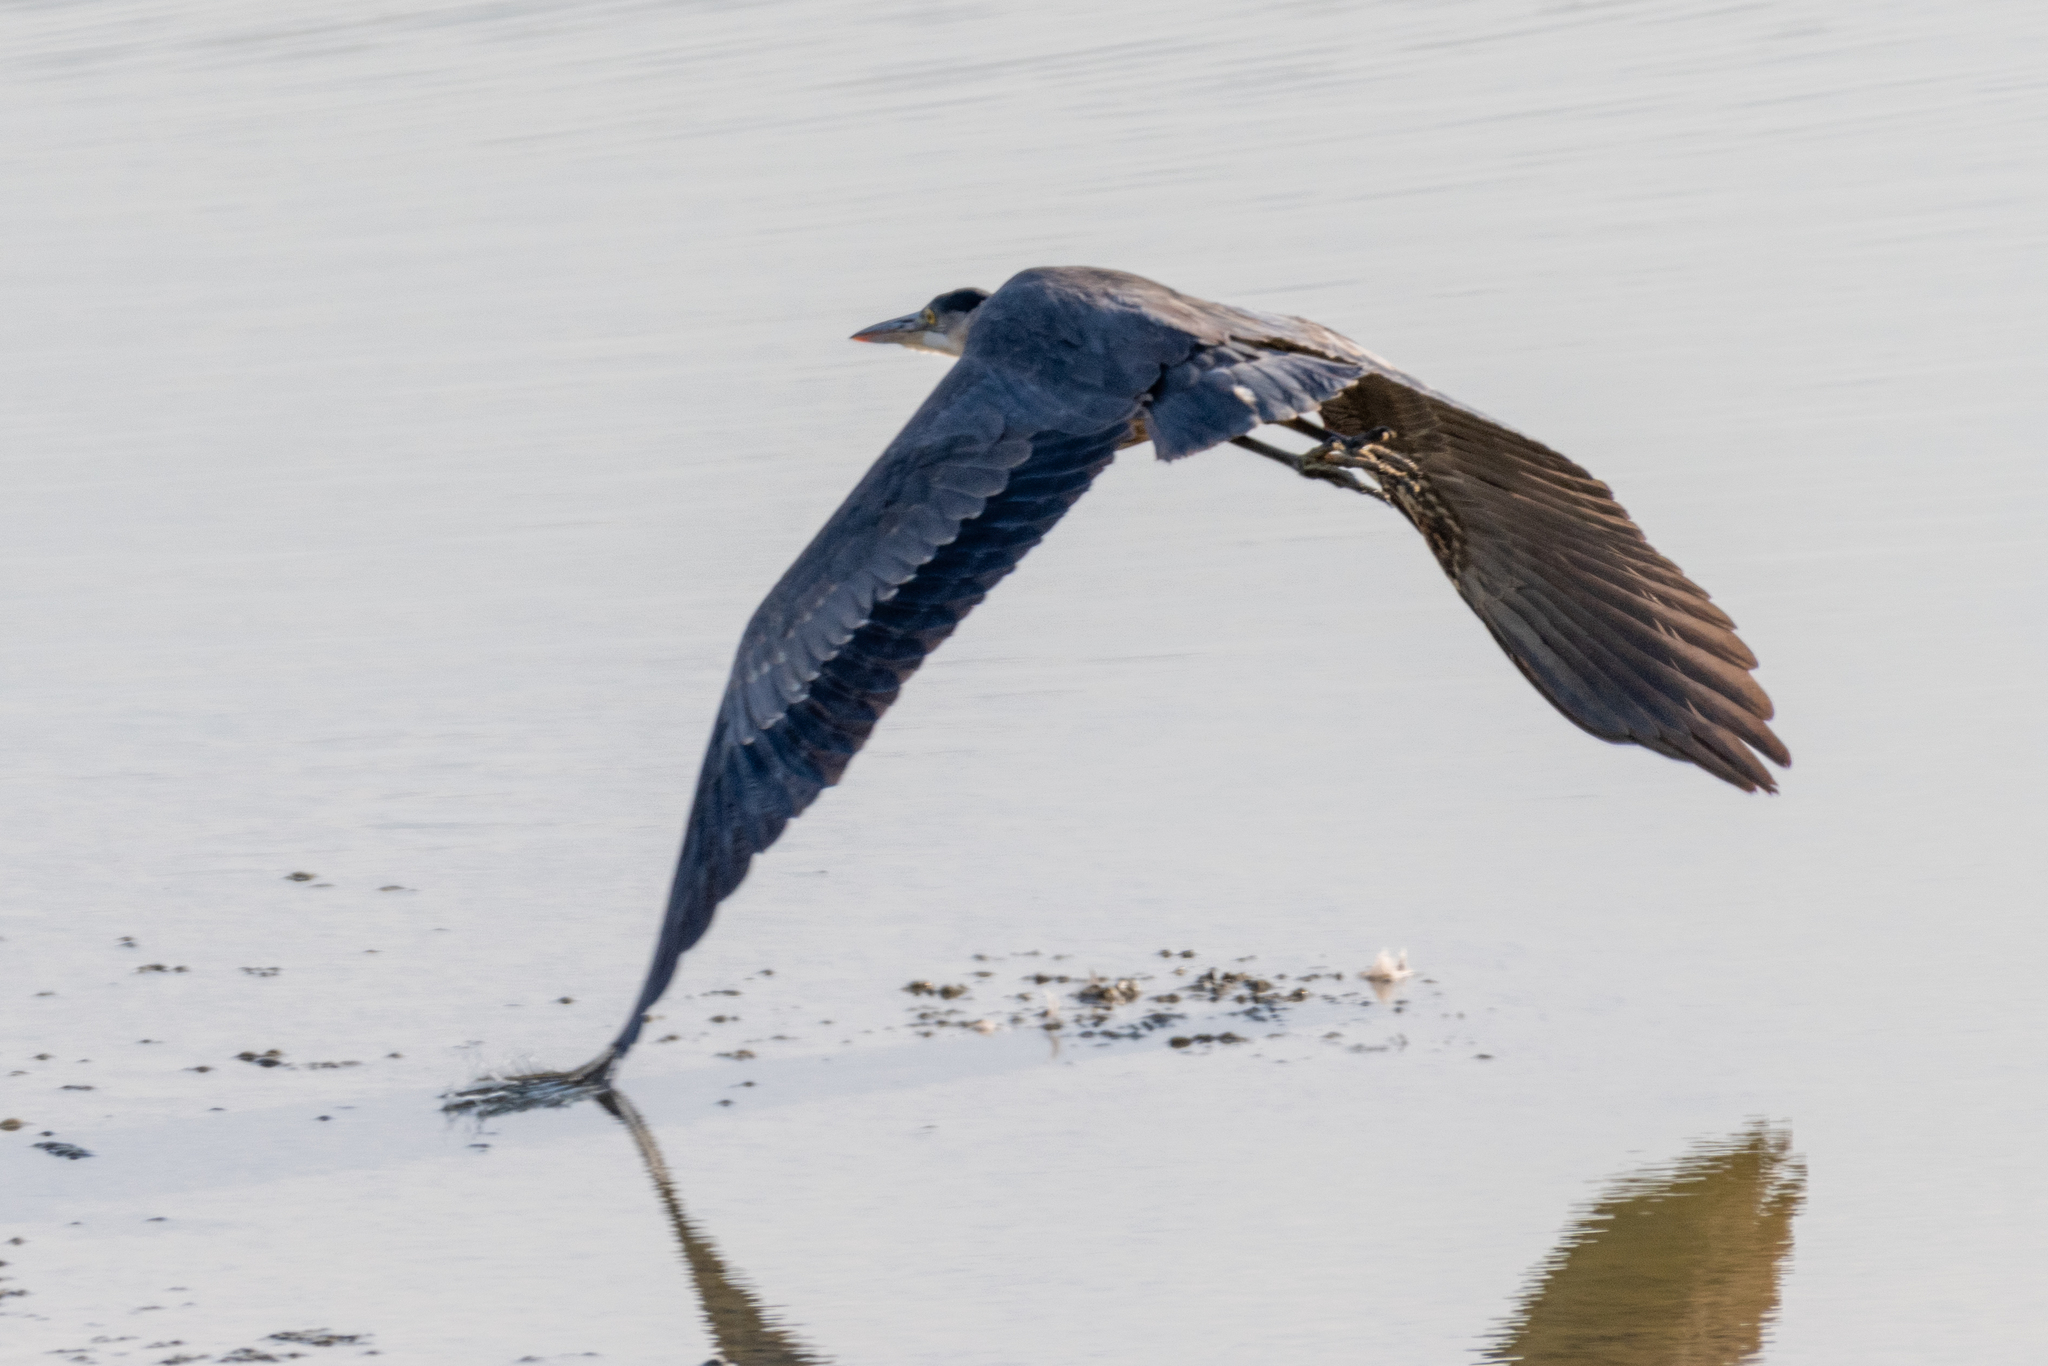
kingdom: Animalia
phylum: Chordata
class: Aves
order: Pelecaniformes
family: Ardeidae
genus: Ardea
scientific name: Ardea herodias
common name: Great blue heron
